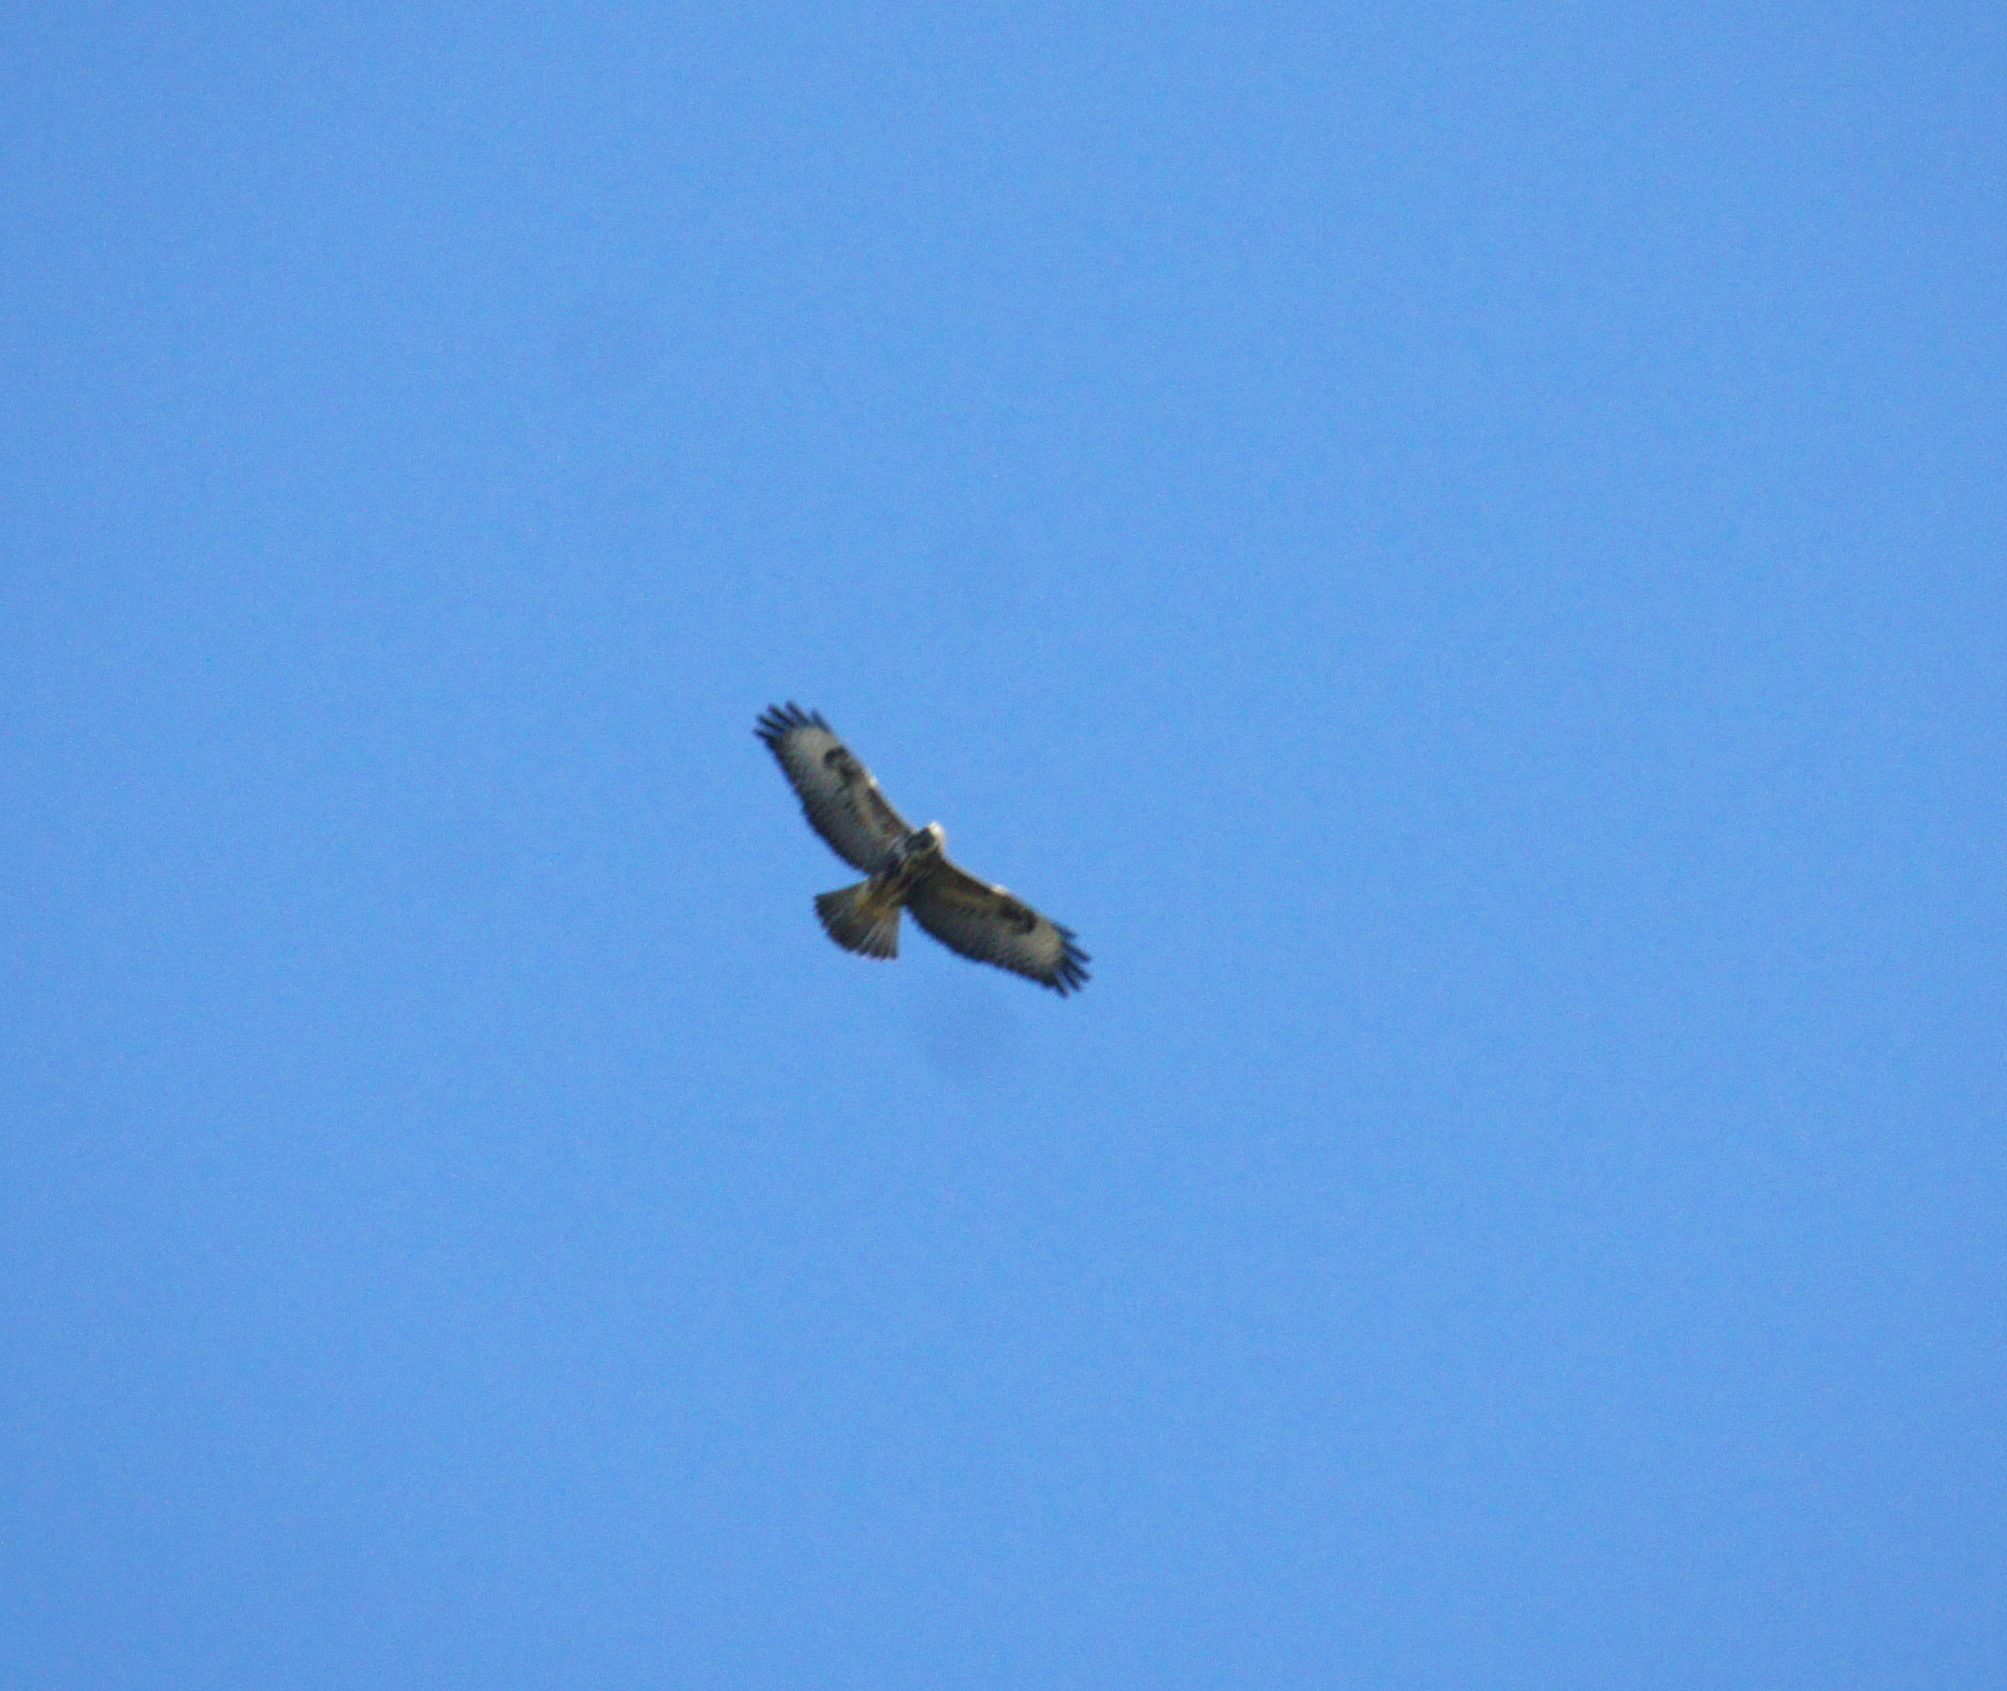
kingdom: Animalia
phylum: Chordata
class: Aves
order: Accipitriformes
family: Accipitridae
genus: Buteo
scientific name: Buteo buteo
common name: Common buzzard
